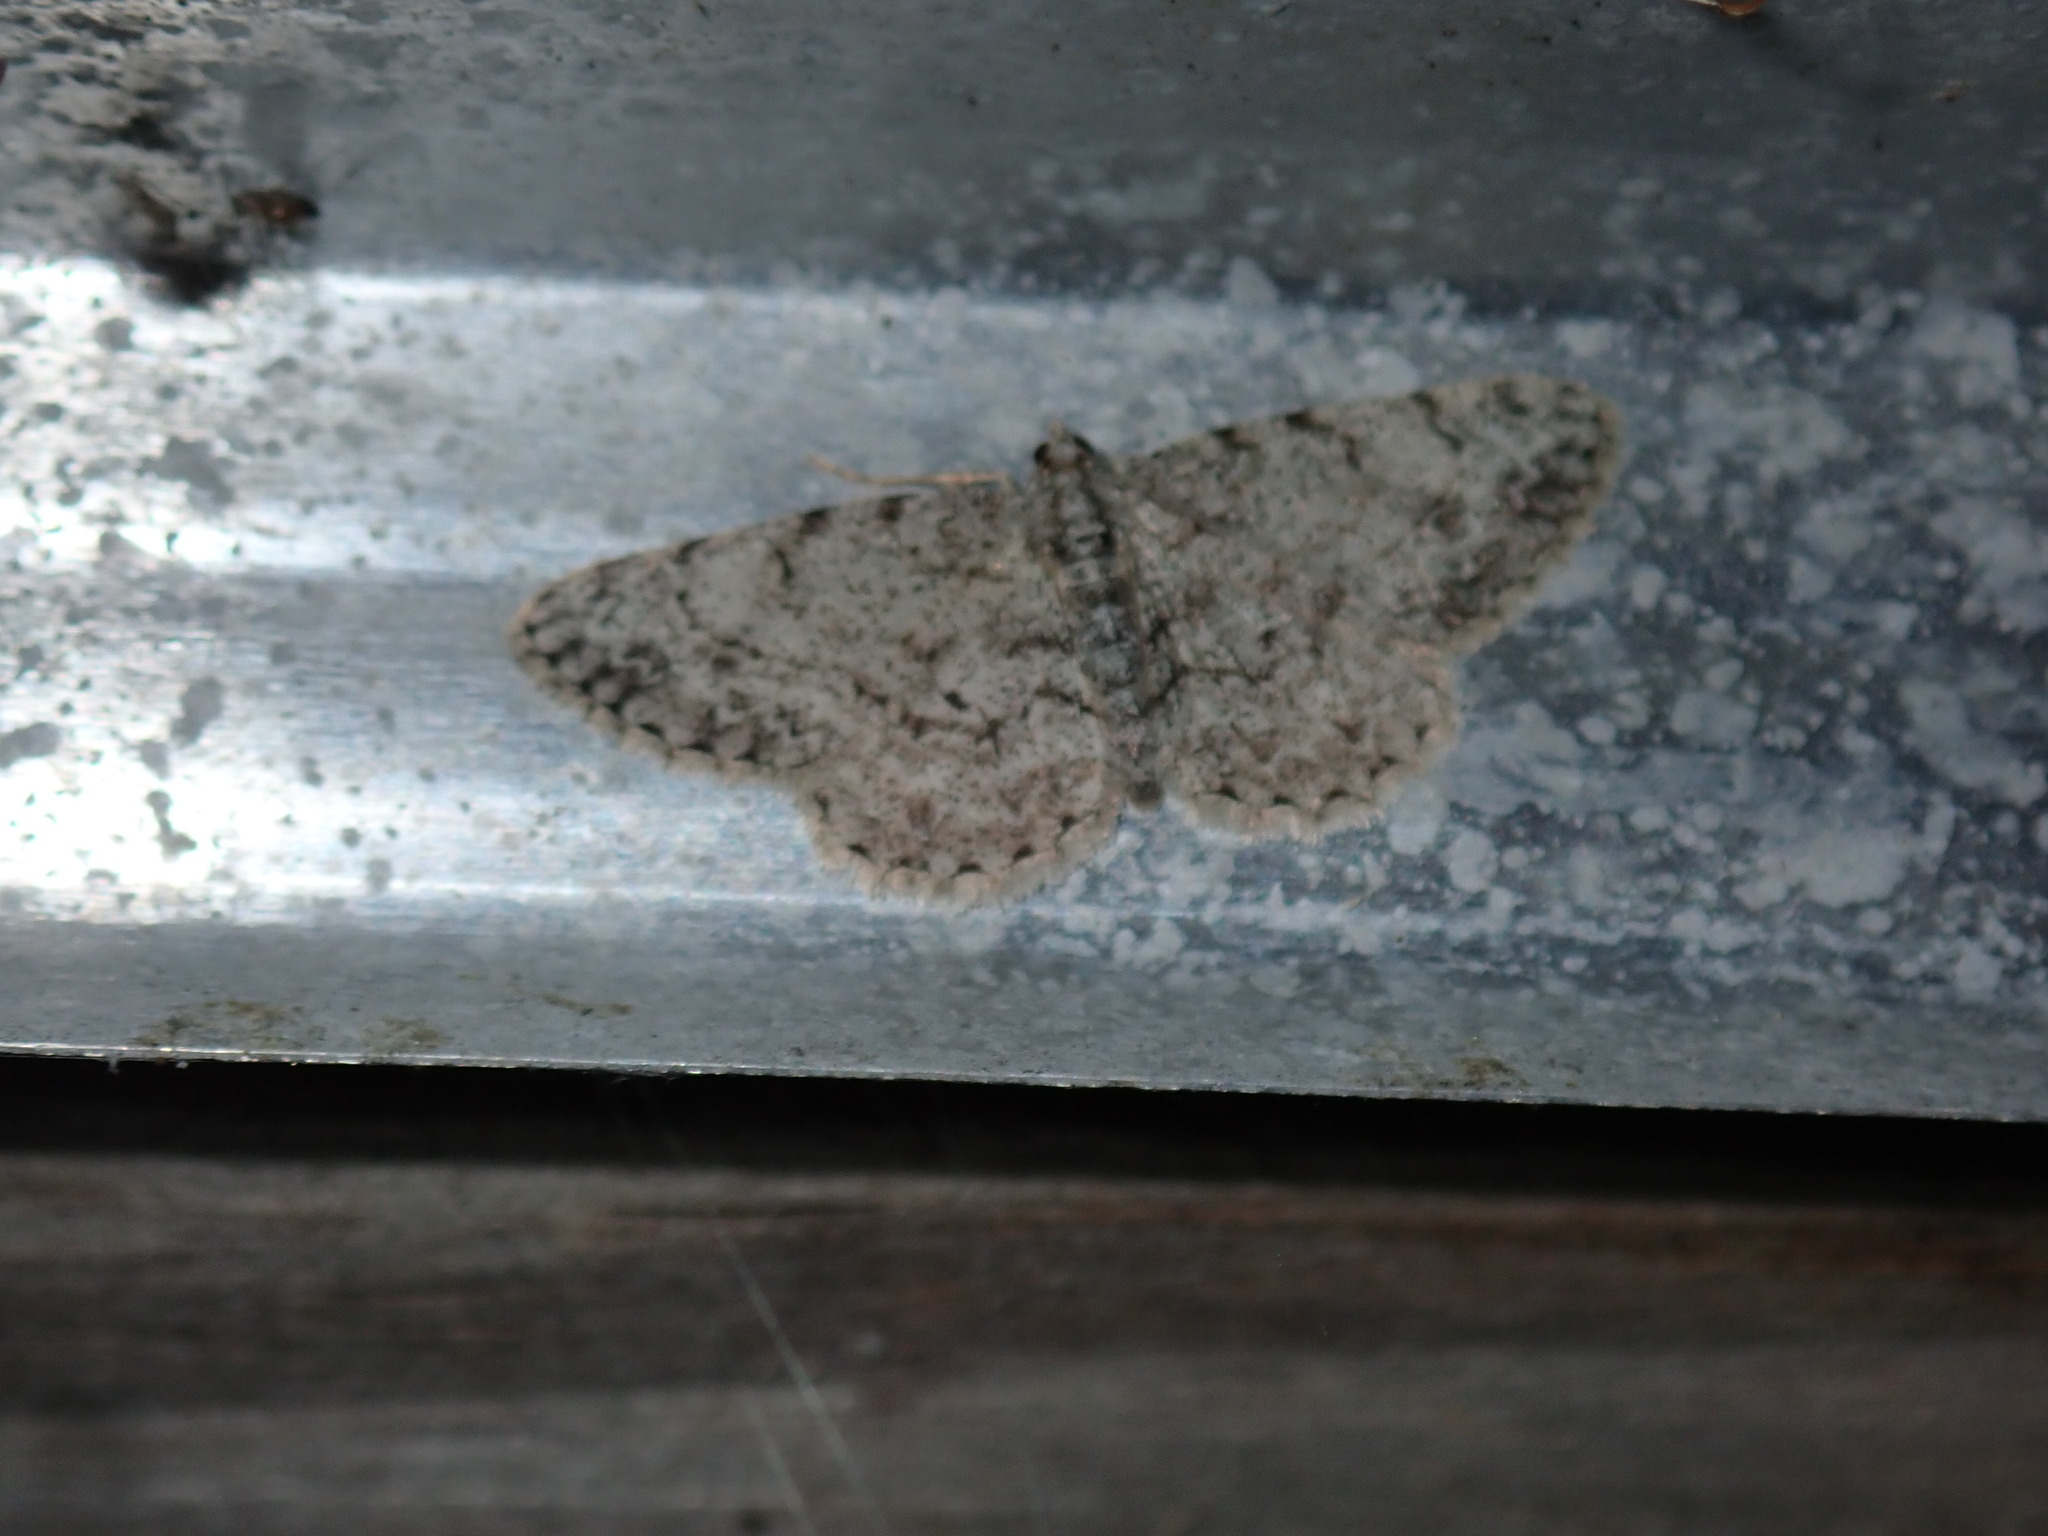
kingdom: Animalia
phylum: Arthropoda
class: Insecta
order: Lepidoptera
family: Geometridae
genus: Protoboarmia
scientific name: Protoboarmia porcelaria
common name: Porcelain gray
